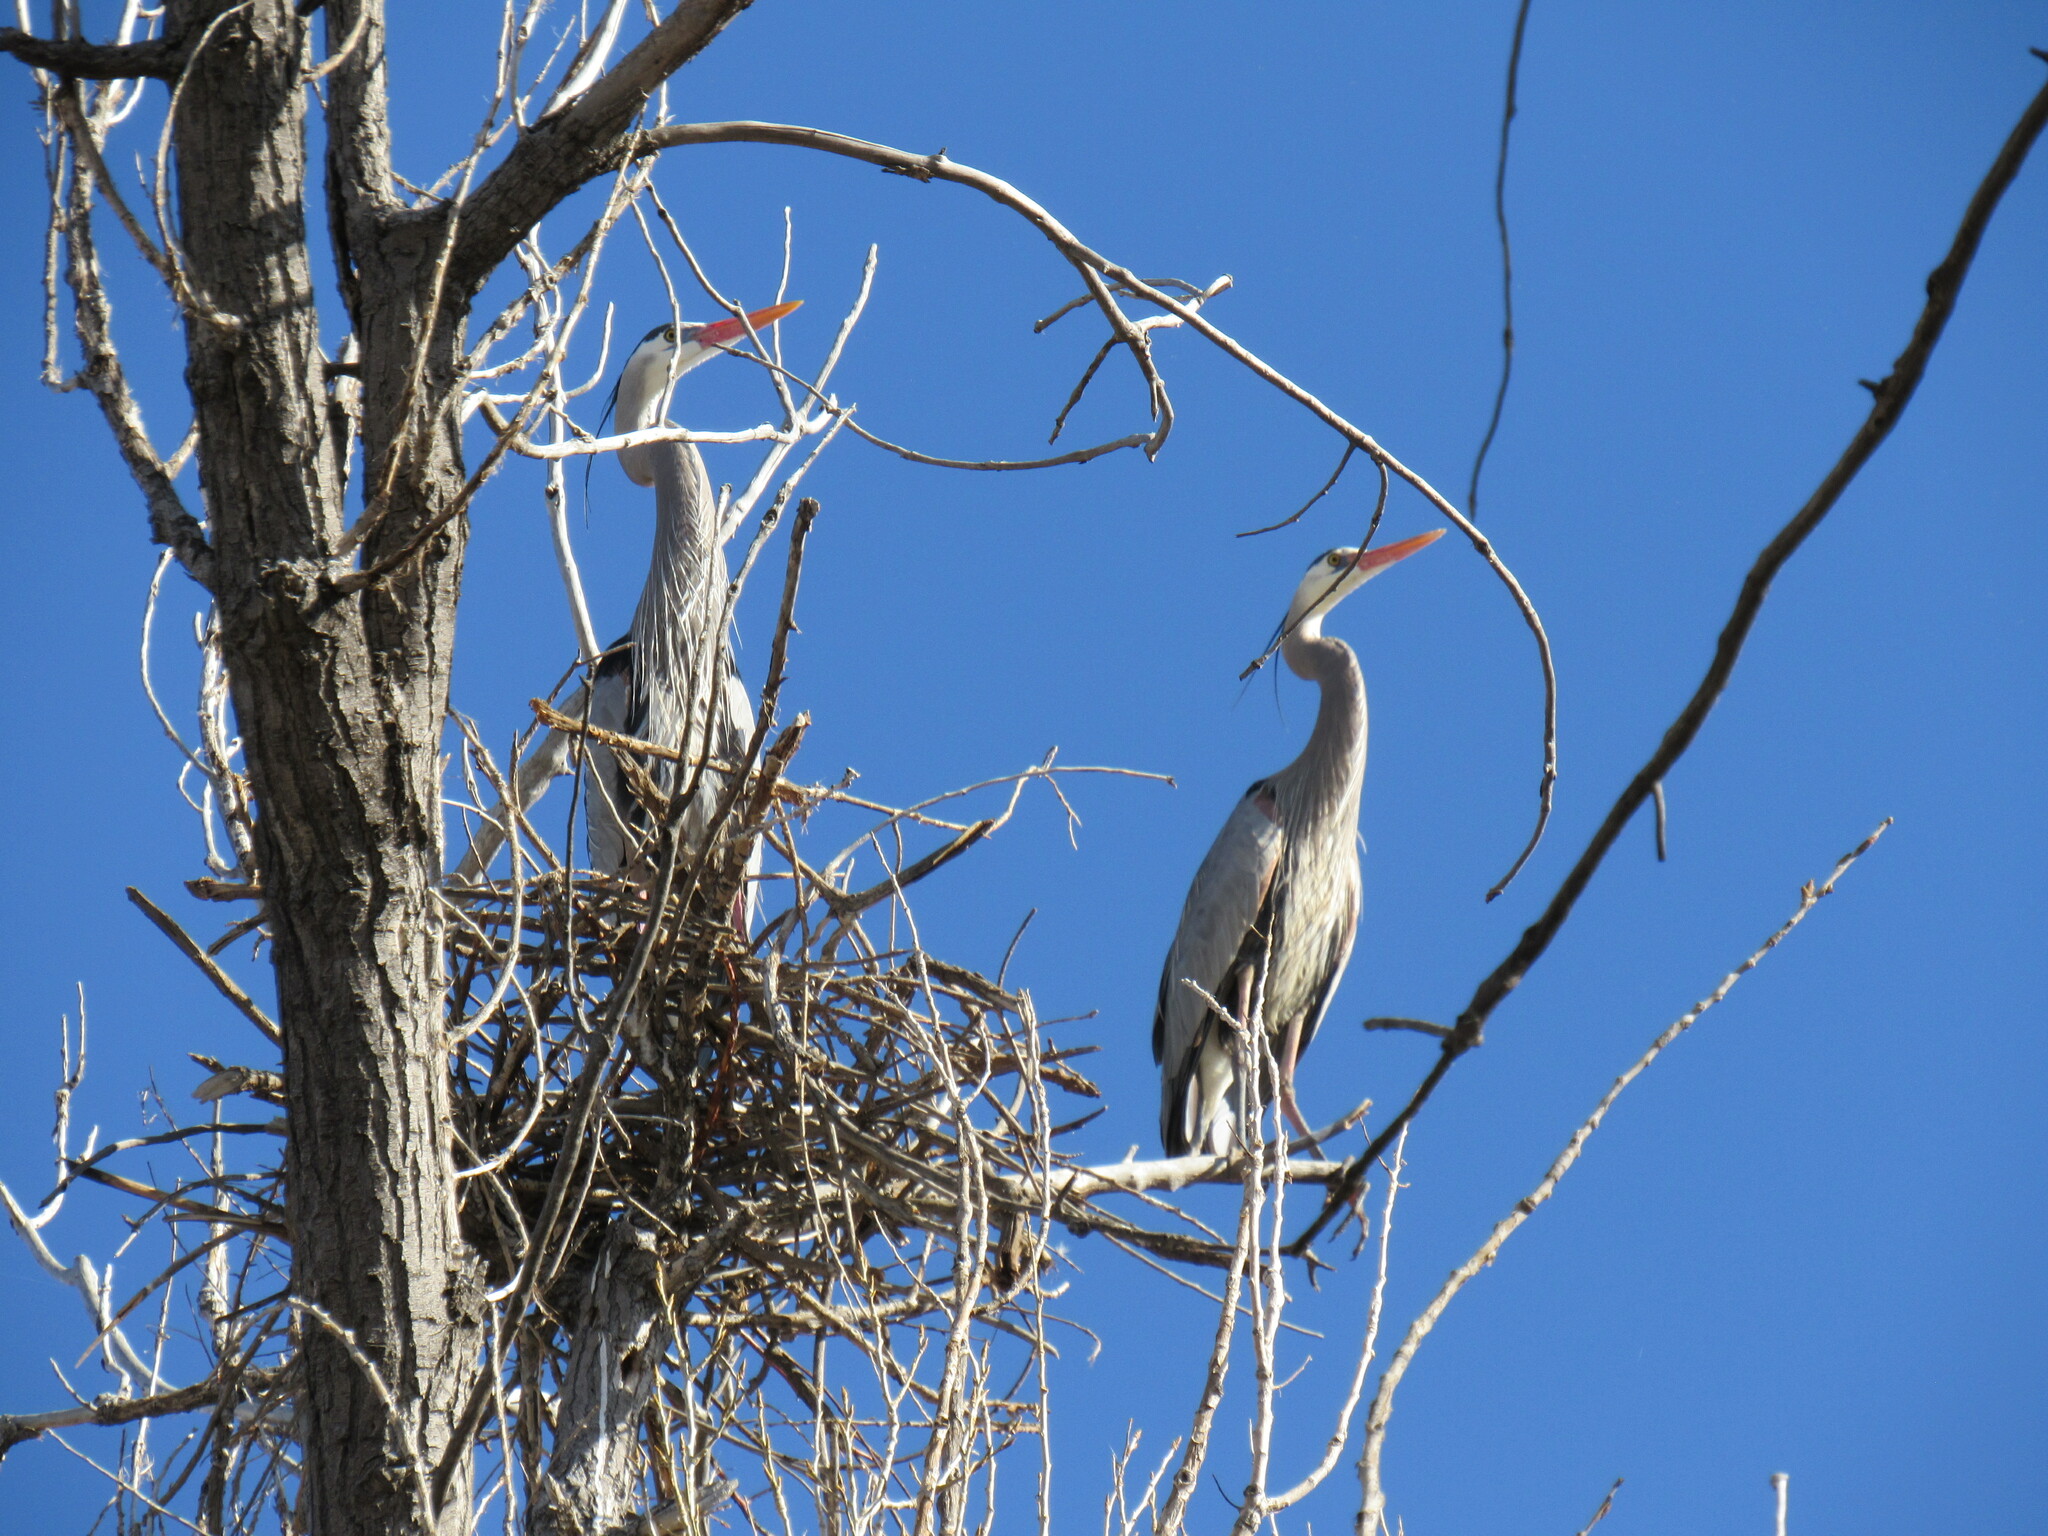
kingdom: Animalia
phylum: Chordata
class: Aves
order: Pelecaniformes
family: Ardeidae
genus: Ardea
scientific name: Ardea herodias
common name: Great blue heron
